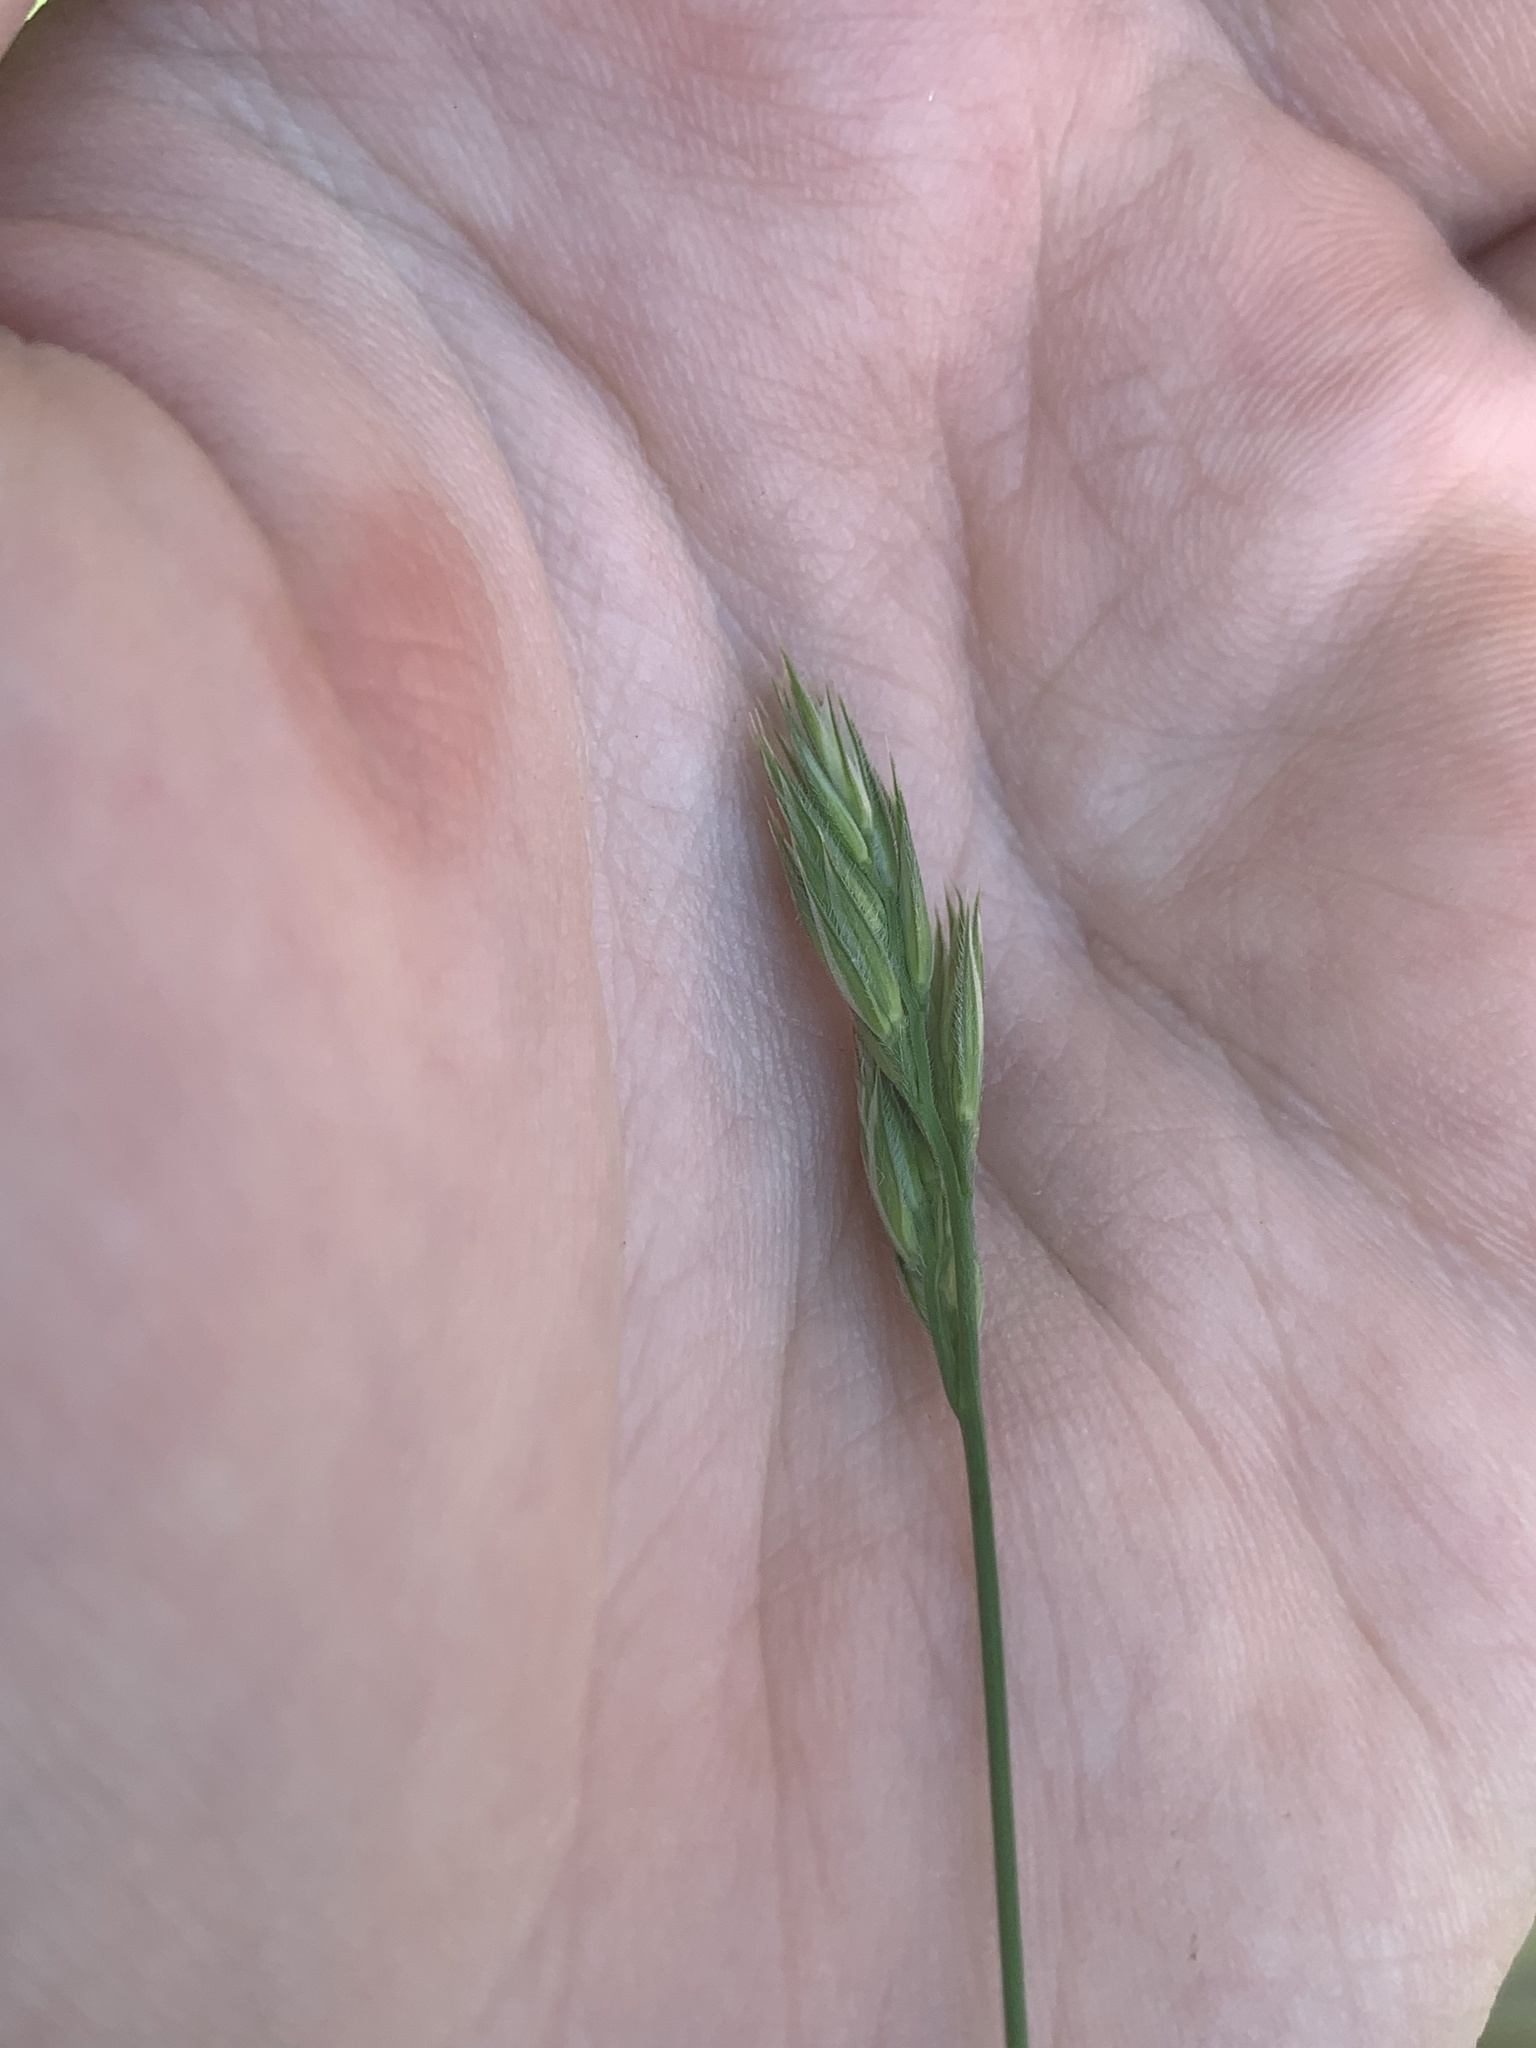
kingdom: Plantae
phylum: Tracheophyta
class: Liliopsida
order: Poales
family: Poaceae
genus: Dactylis
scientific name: Dactylis glomerata
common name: Orchardgrass
